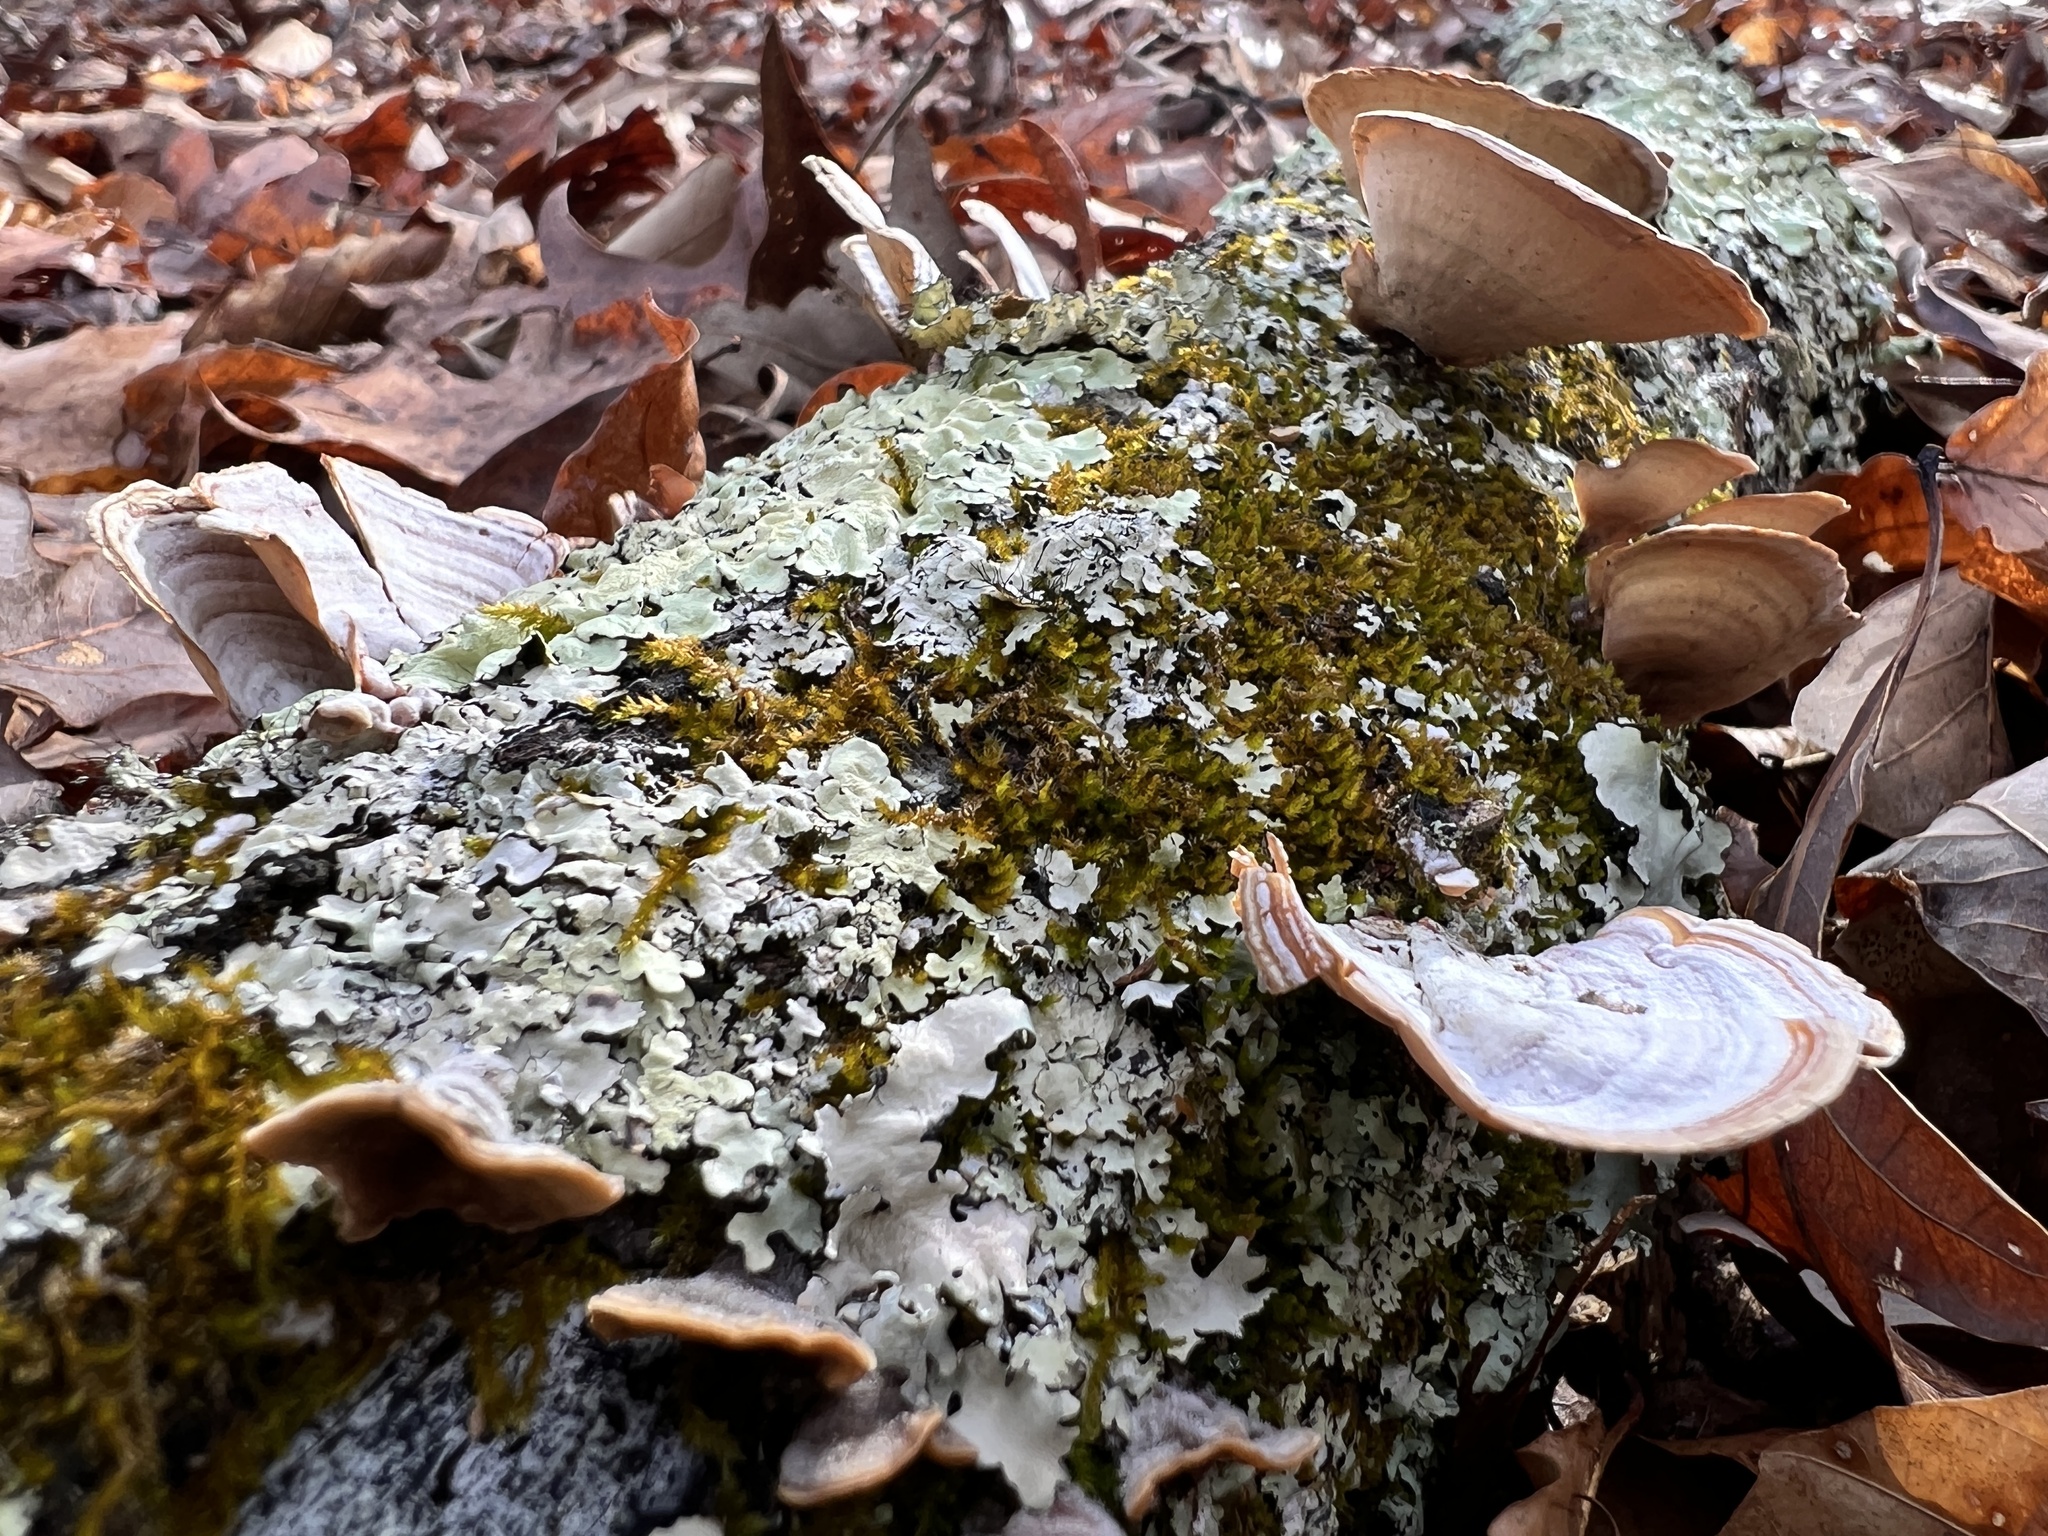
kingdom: Fungi
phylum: Basidiomycota
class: Agaricomycetes
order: Russulales
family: Stereaceae
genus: Stereum
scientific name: Stereum lobatum
